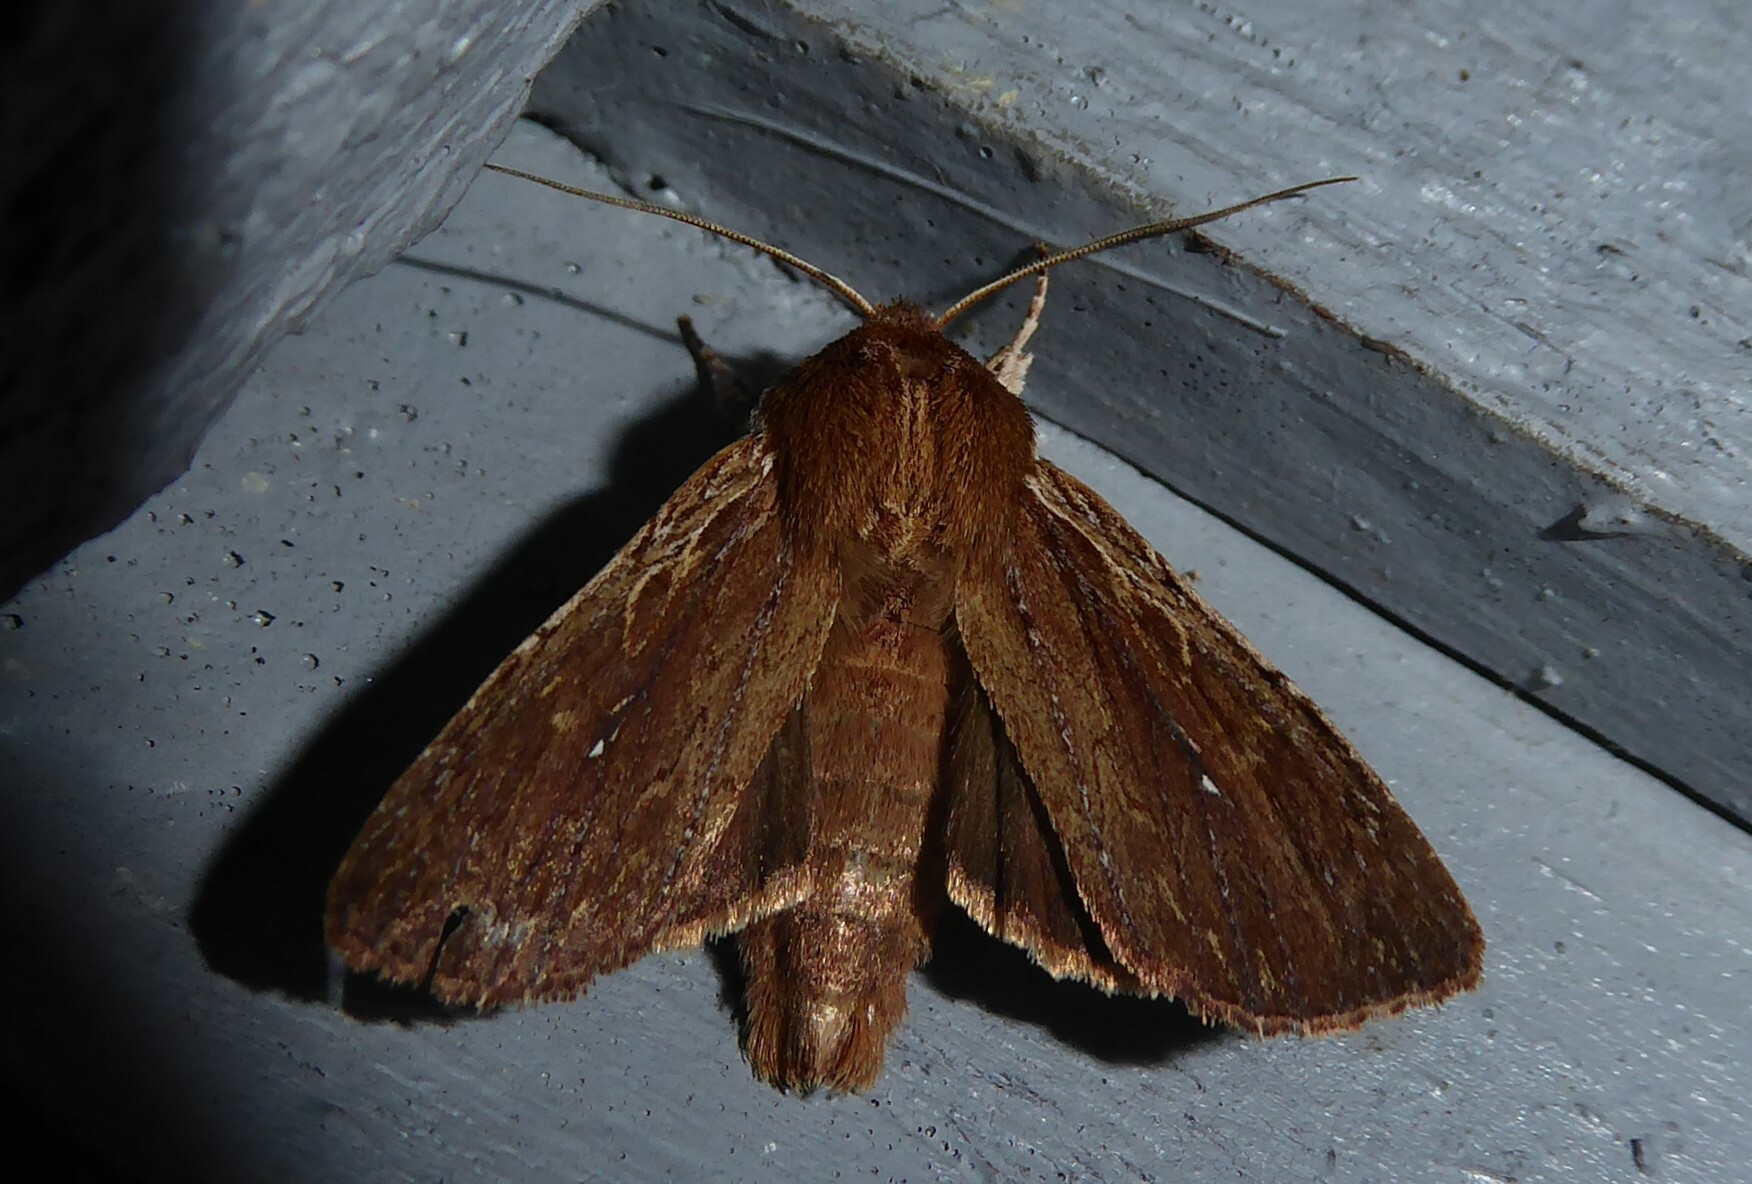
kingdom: Animalia
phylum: Arthropoda
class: Insecta
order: Lepidoptera
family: Noctuidae
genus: Ichneutica
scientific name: Ichneutica
